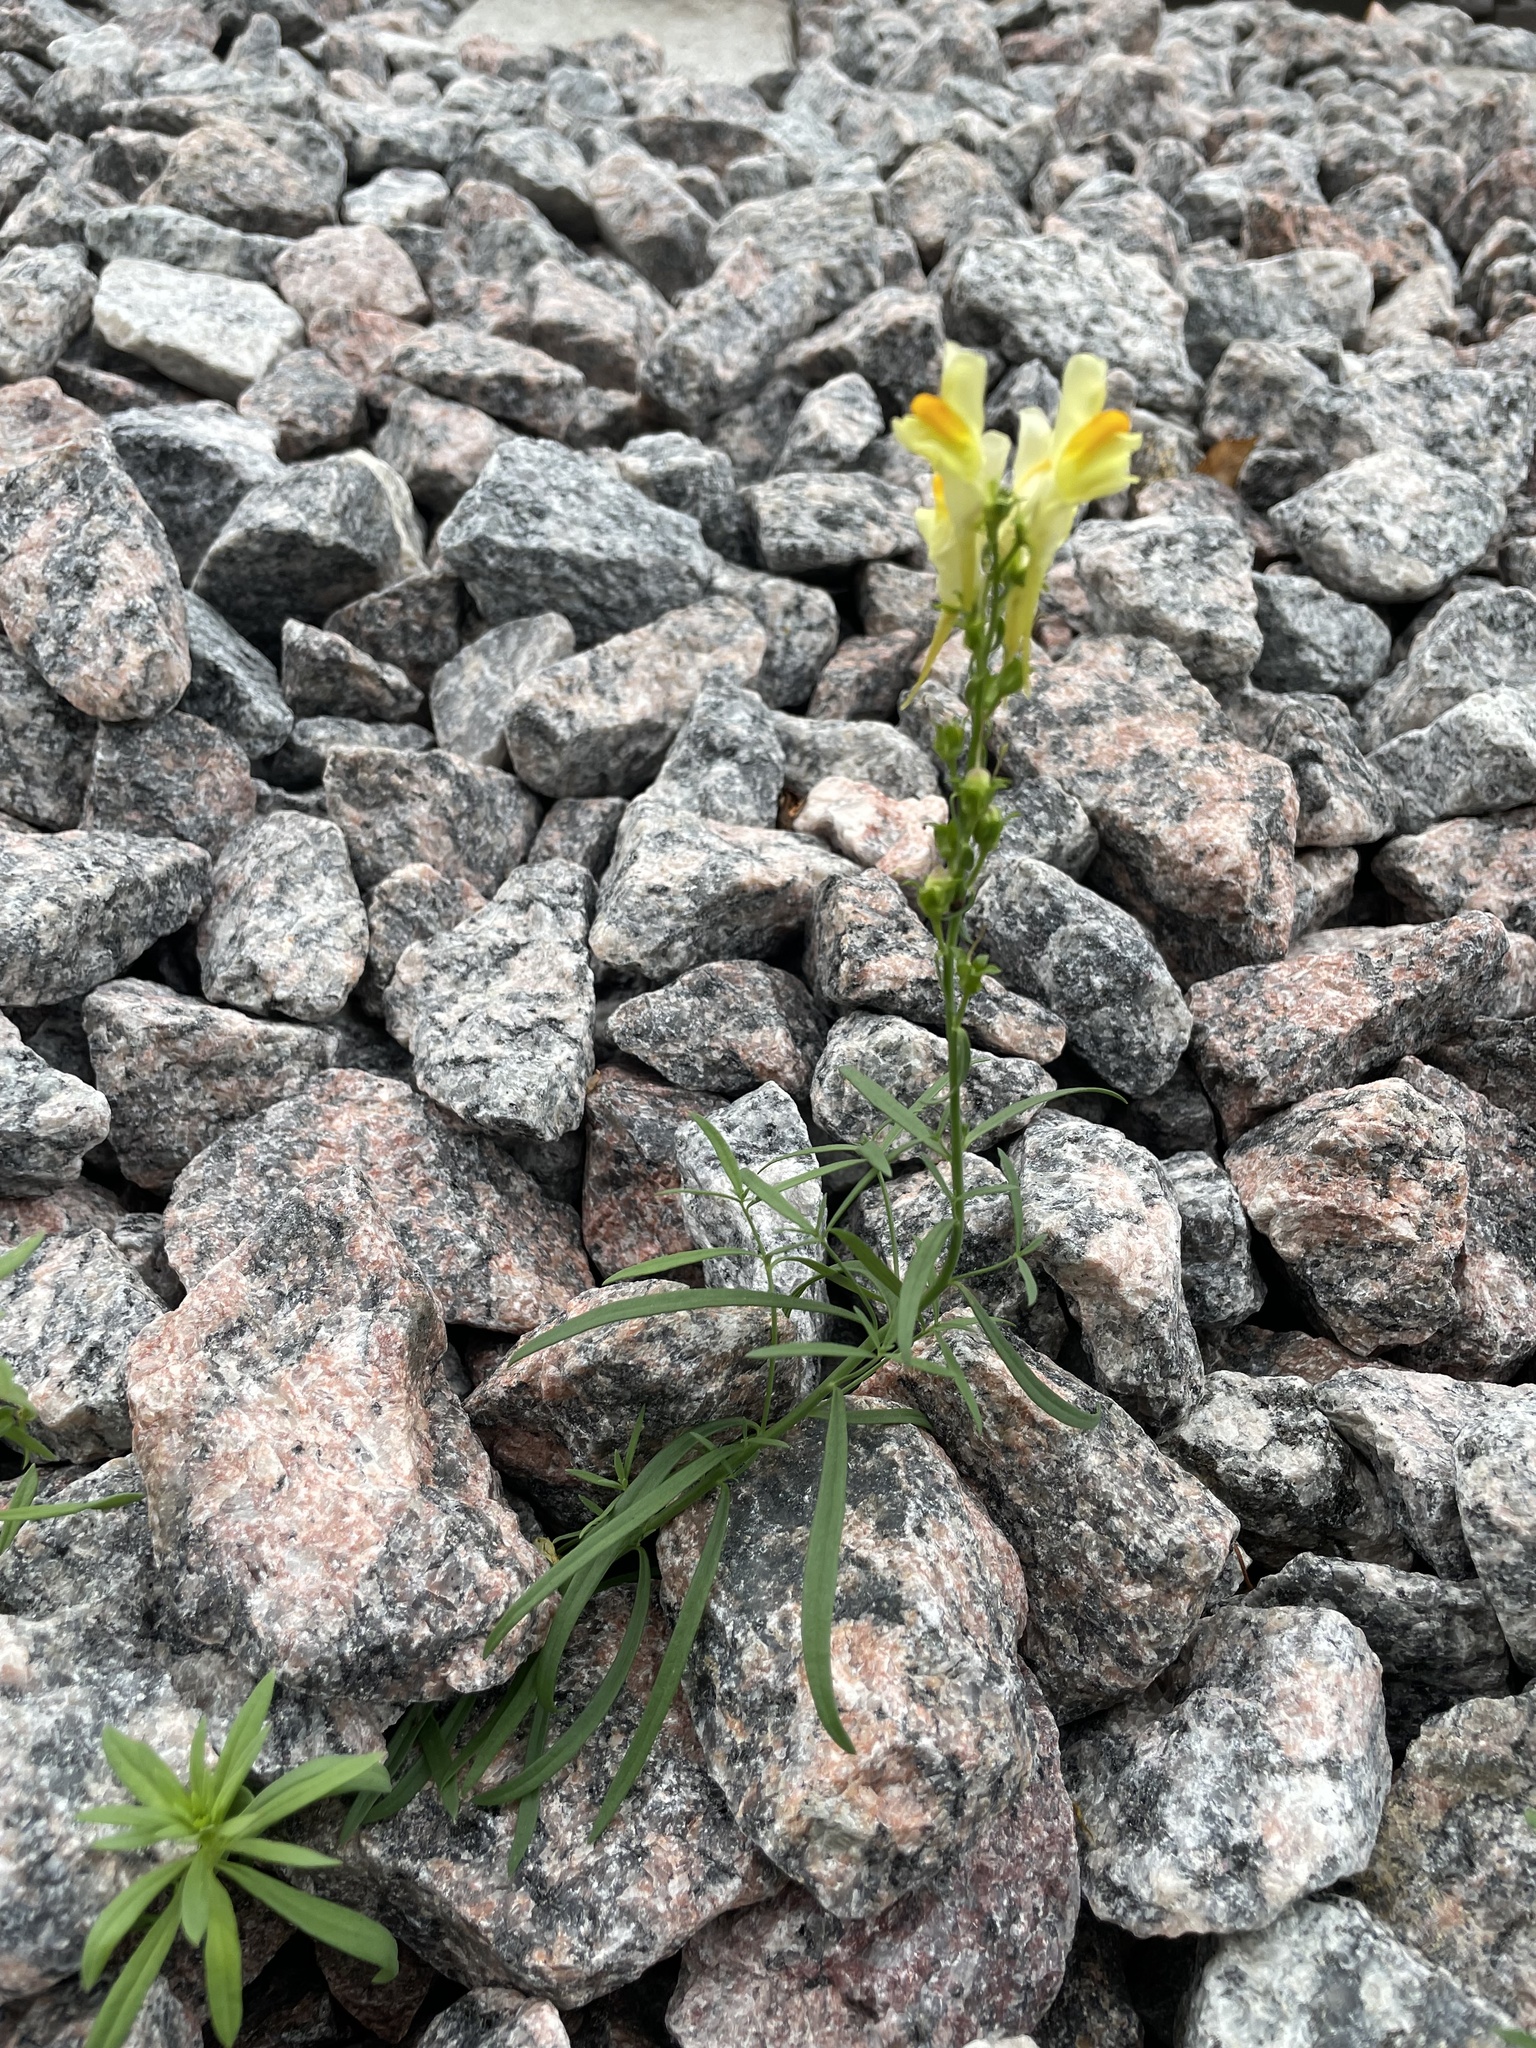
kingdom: Plantae
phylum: Tracheophyta
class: Magnoliopsida
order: Lamiales
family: Plantaginaceae
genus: Linaria
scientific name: Linaria vulgaris
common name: Butter and eggs
